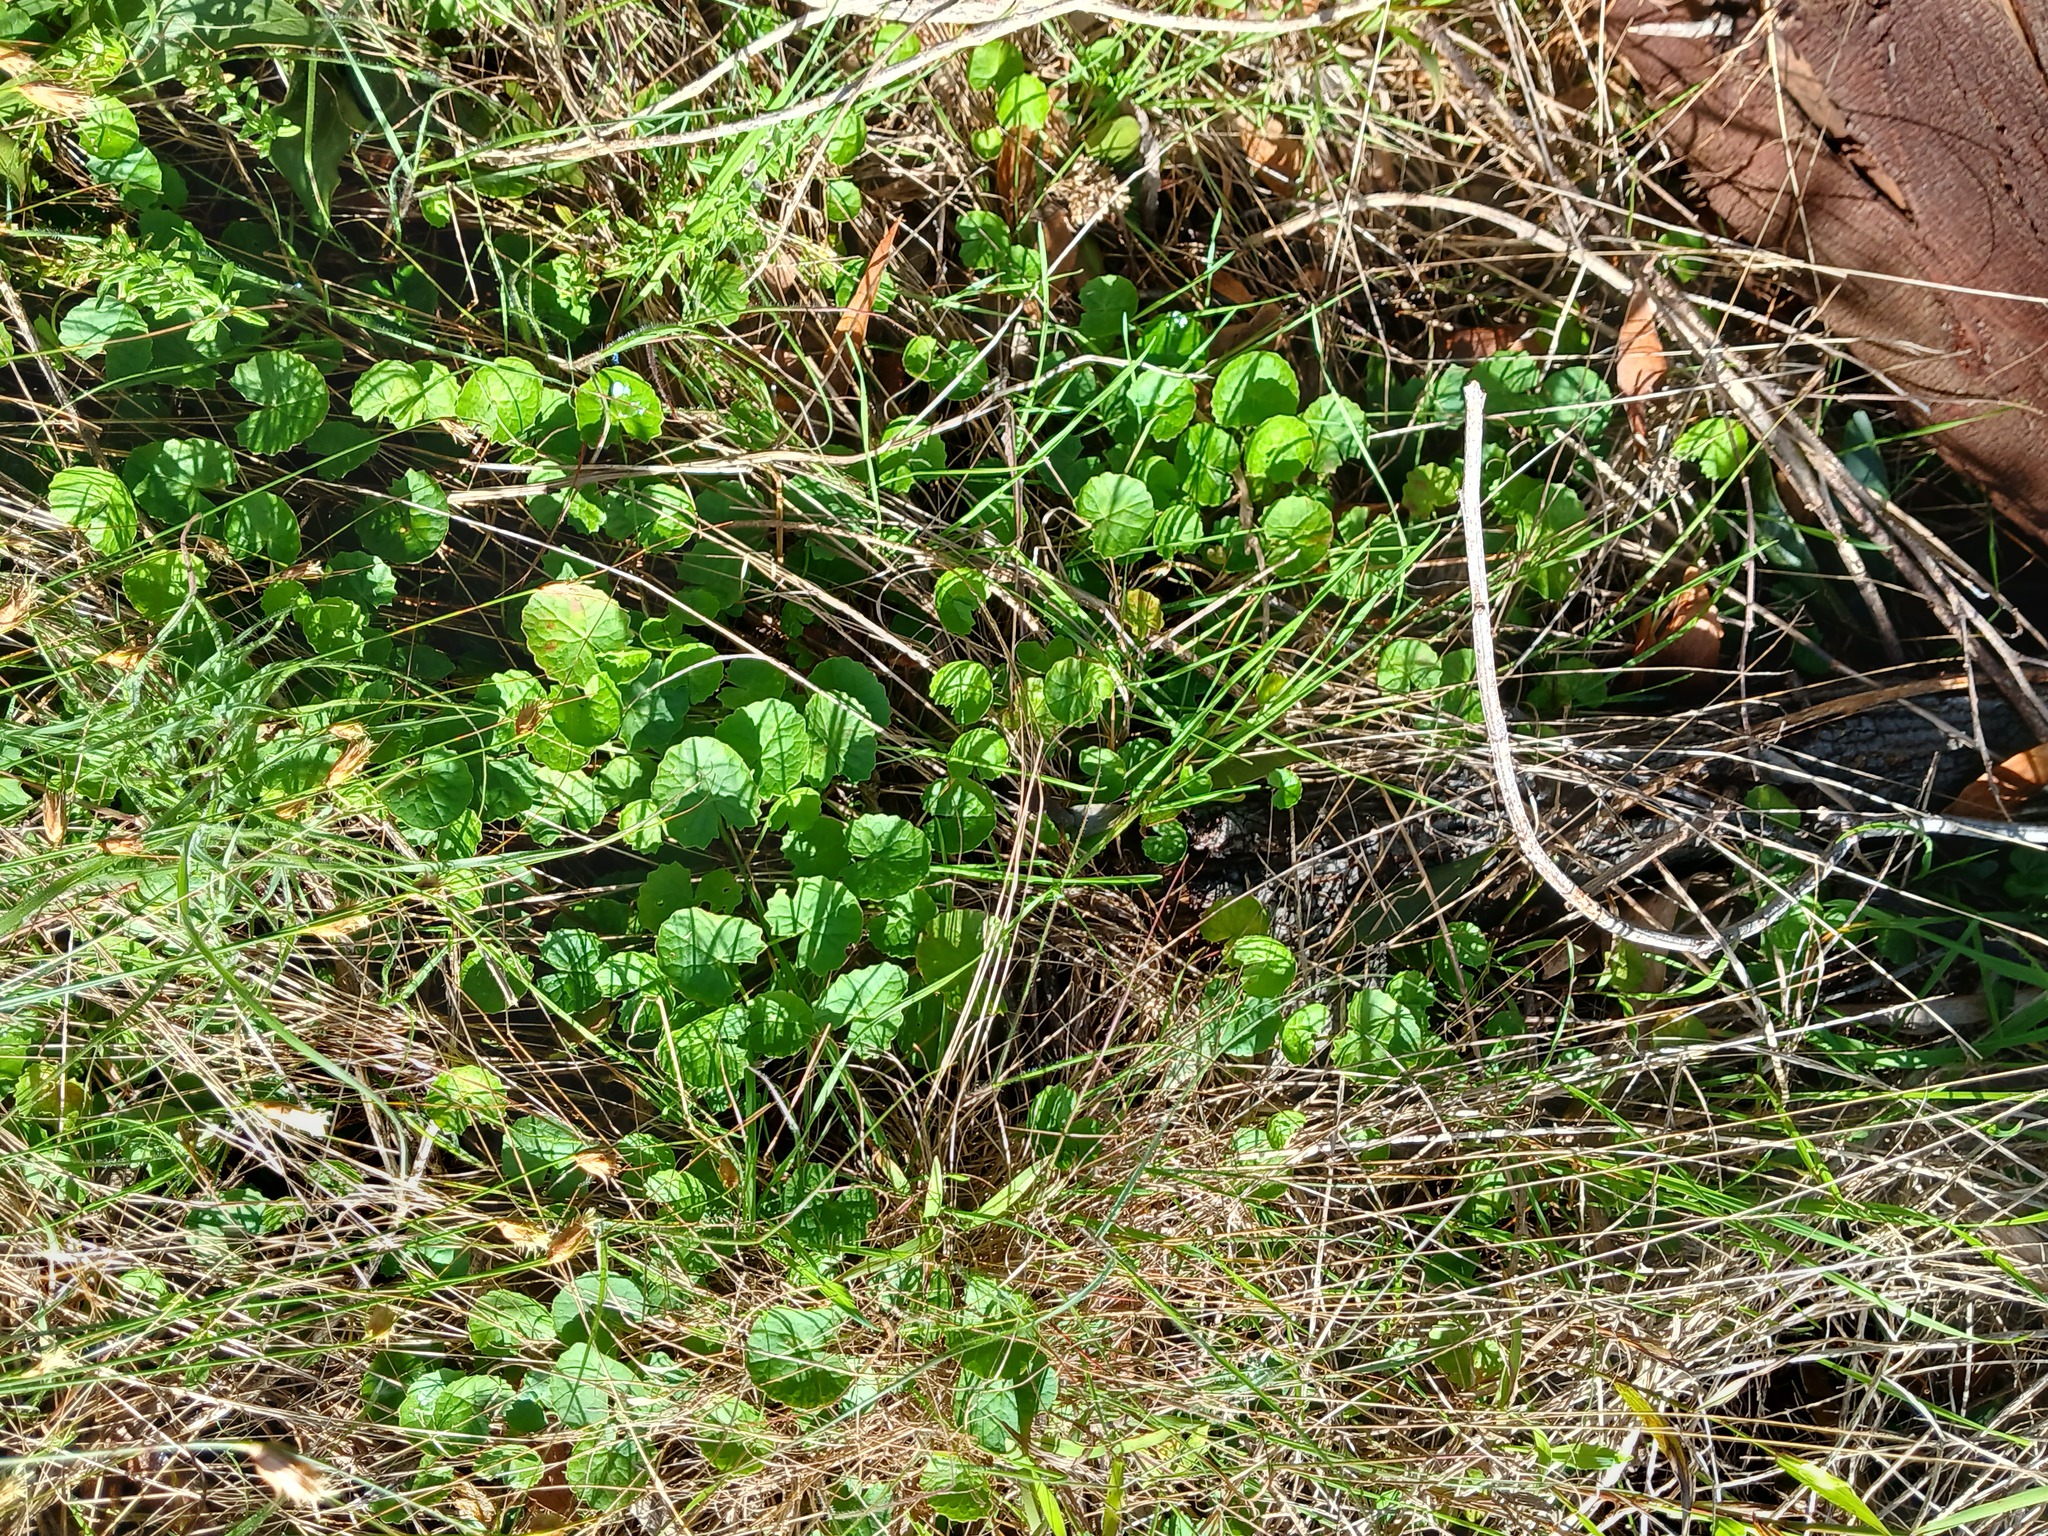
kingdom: Plantae
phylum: Tracheophyta
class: Magnoliopsida
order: Apiales
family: Apiaceae
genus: Centella
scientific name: Centella asiatica
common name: Spadeleaf
